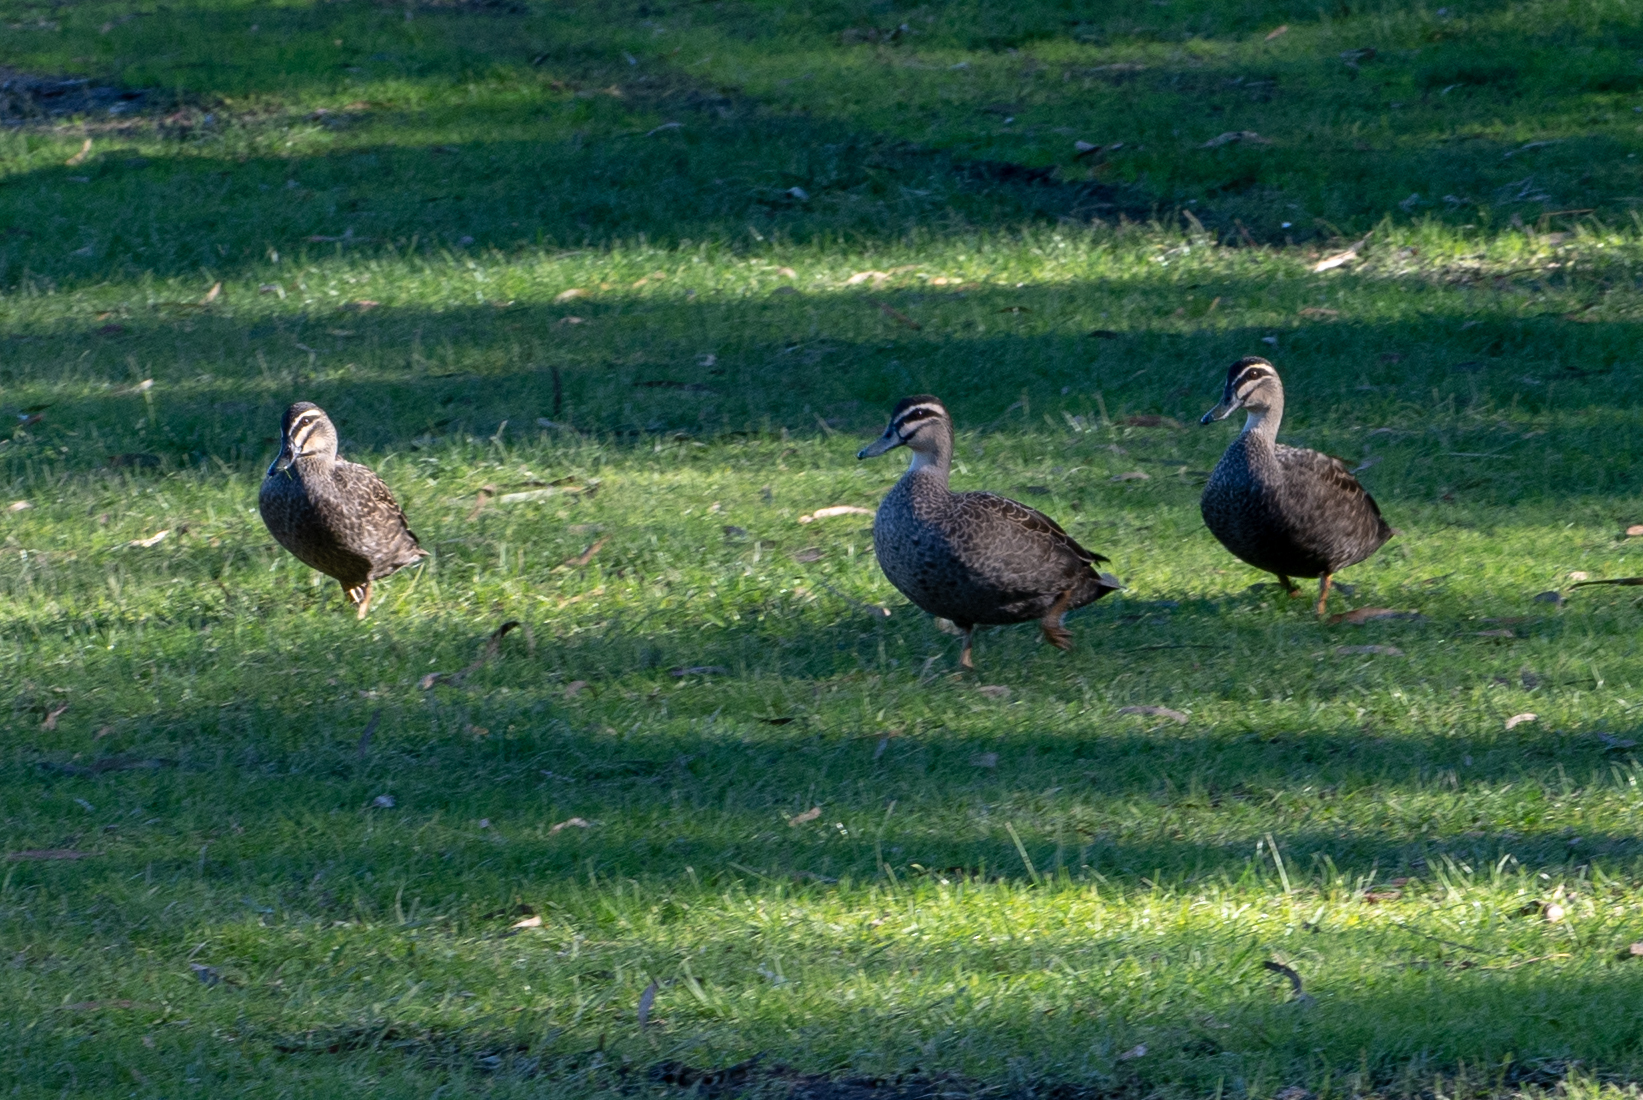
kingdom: Animalia
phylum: Chordata
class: Aves
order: Anseriformes
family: Anatidae
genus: Anas
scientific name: Anas superciliosa
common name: Pacific black duck
